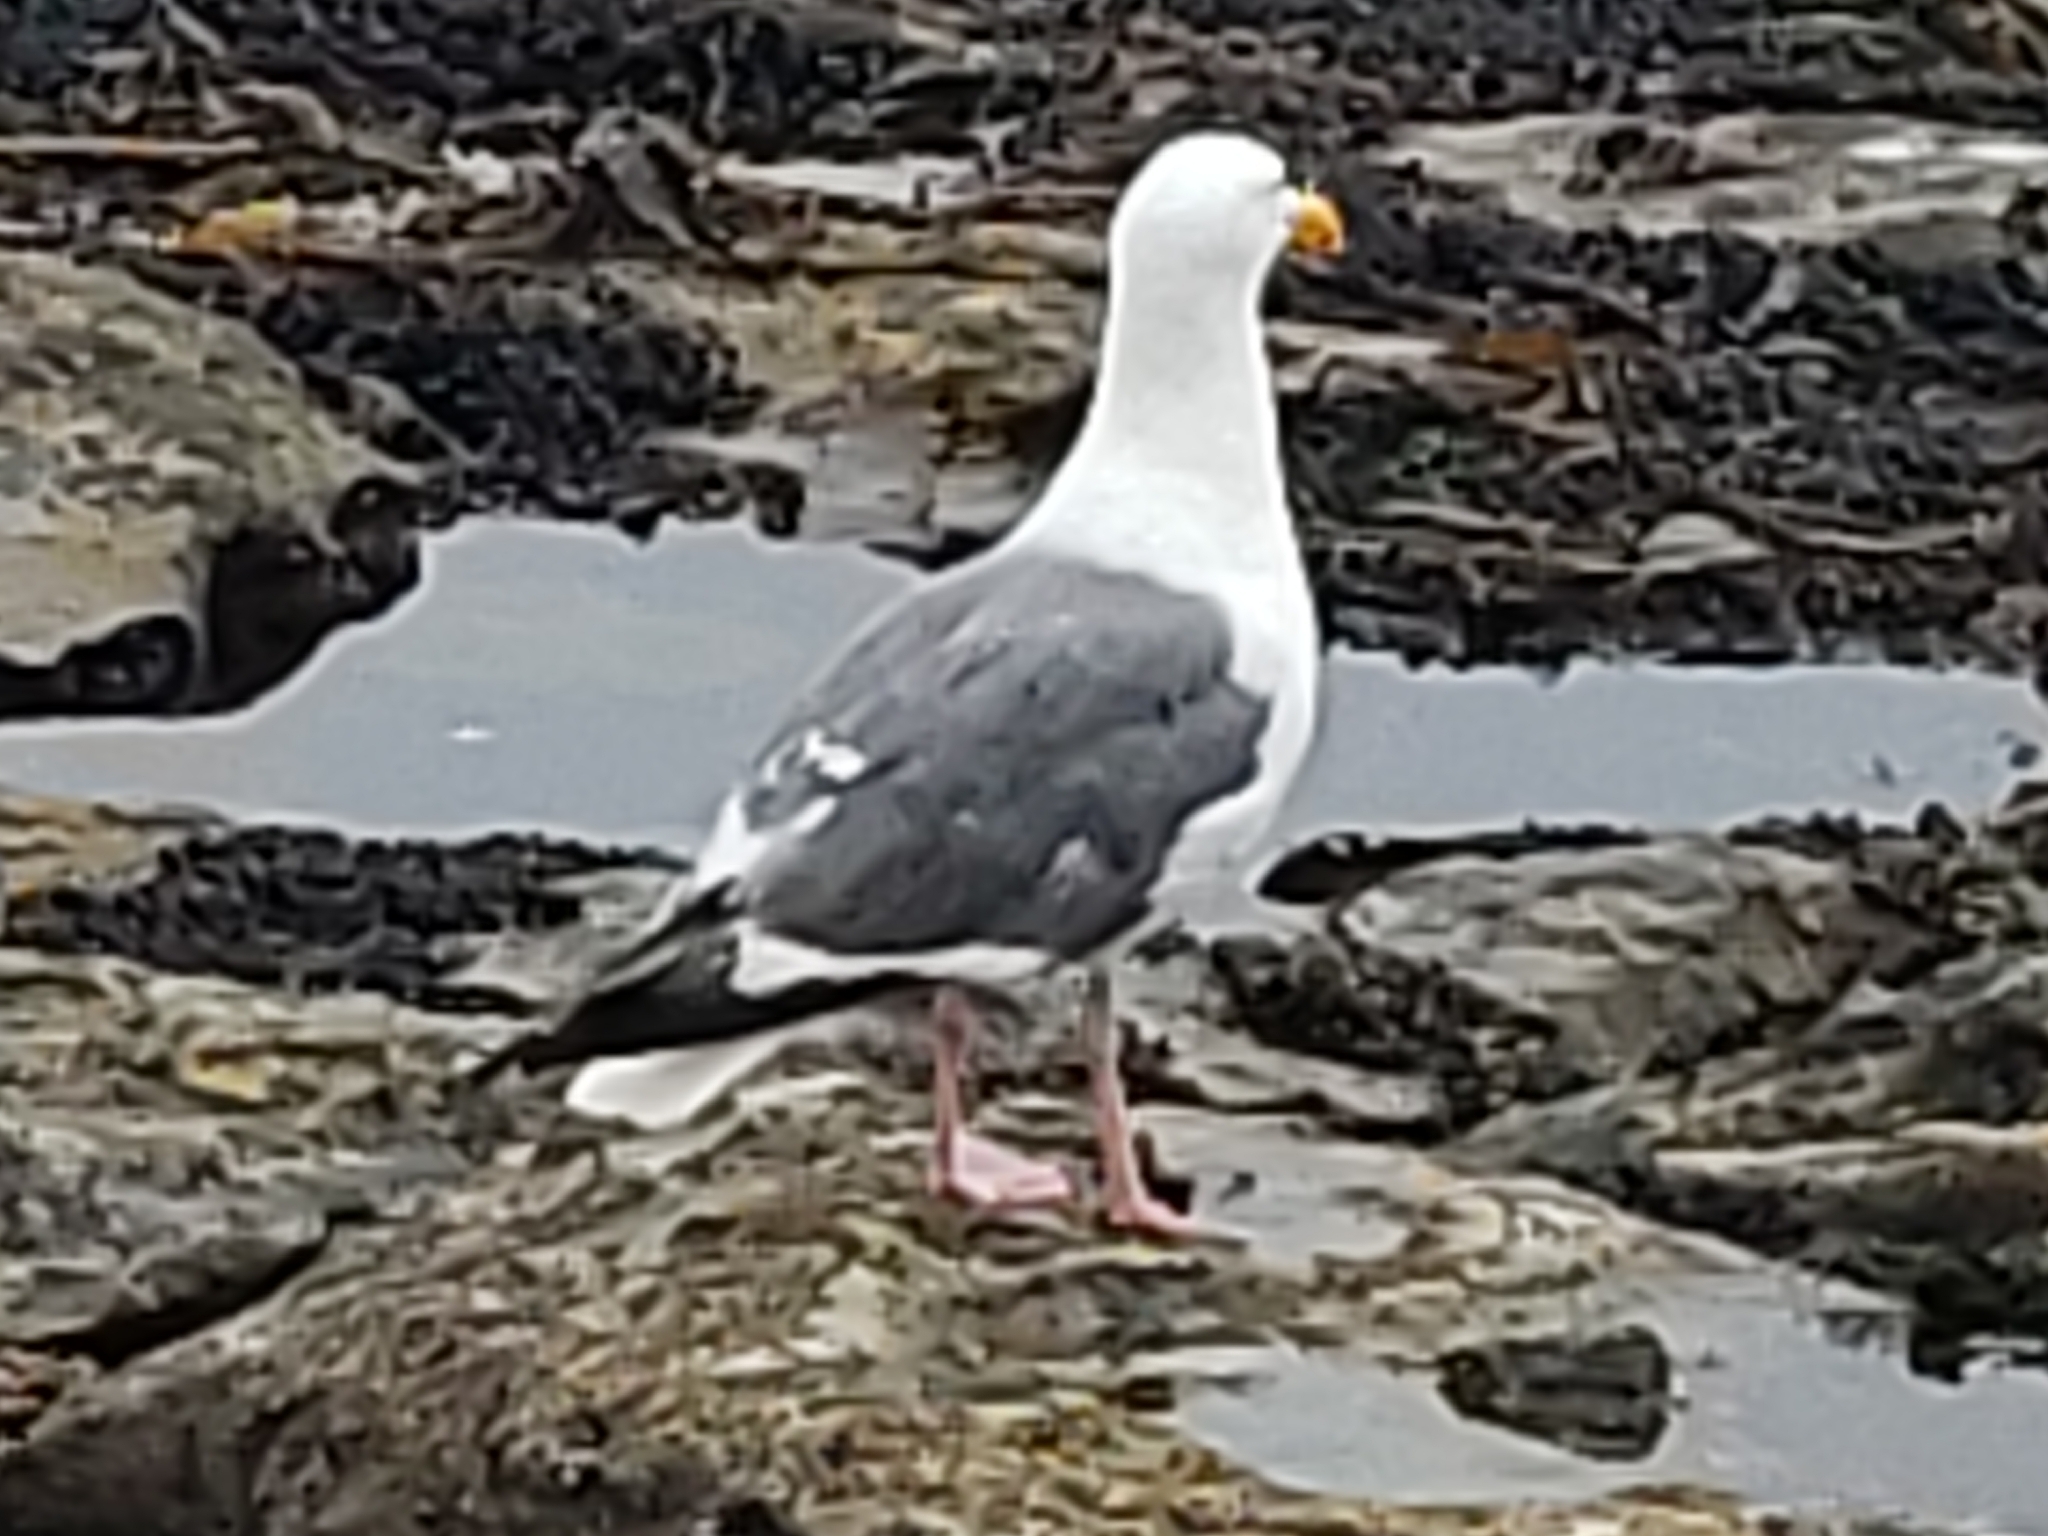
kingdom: Animalia
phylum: Chordata
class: Aves
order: Charadriiformes
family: Laridae
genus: Larus
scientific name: Larus occidentalis
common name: Western gull
